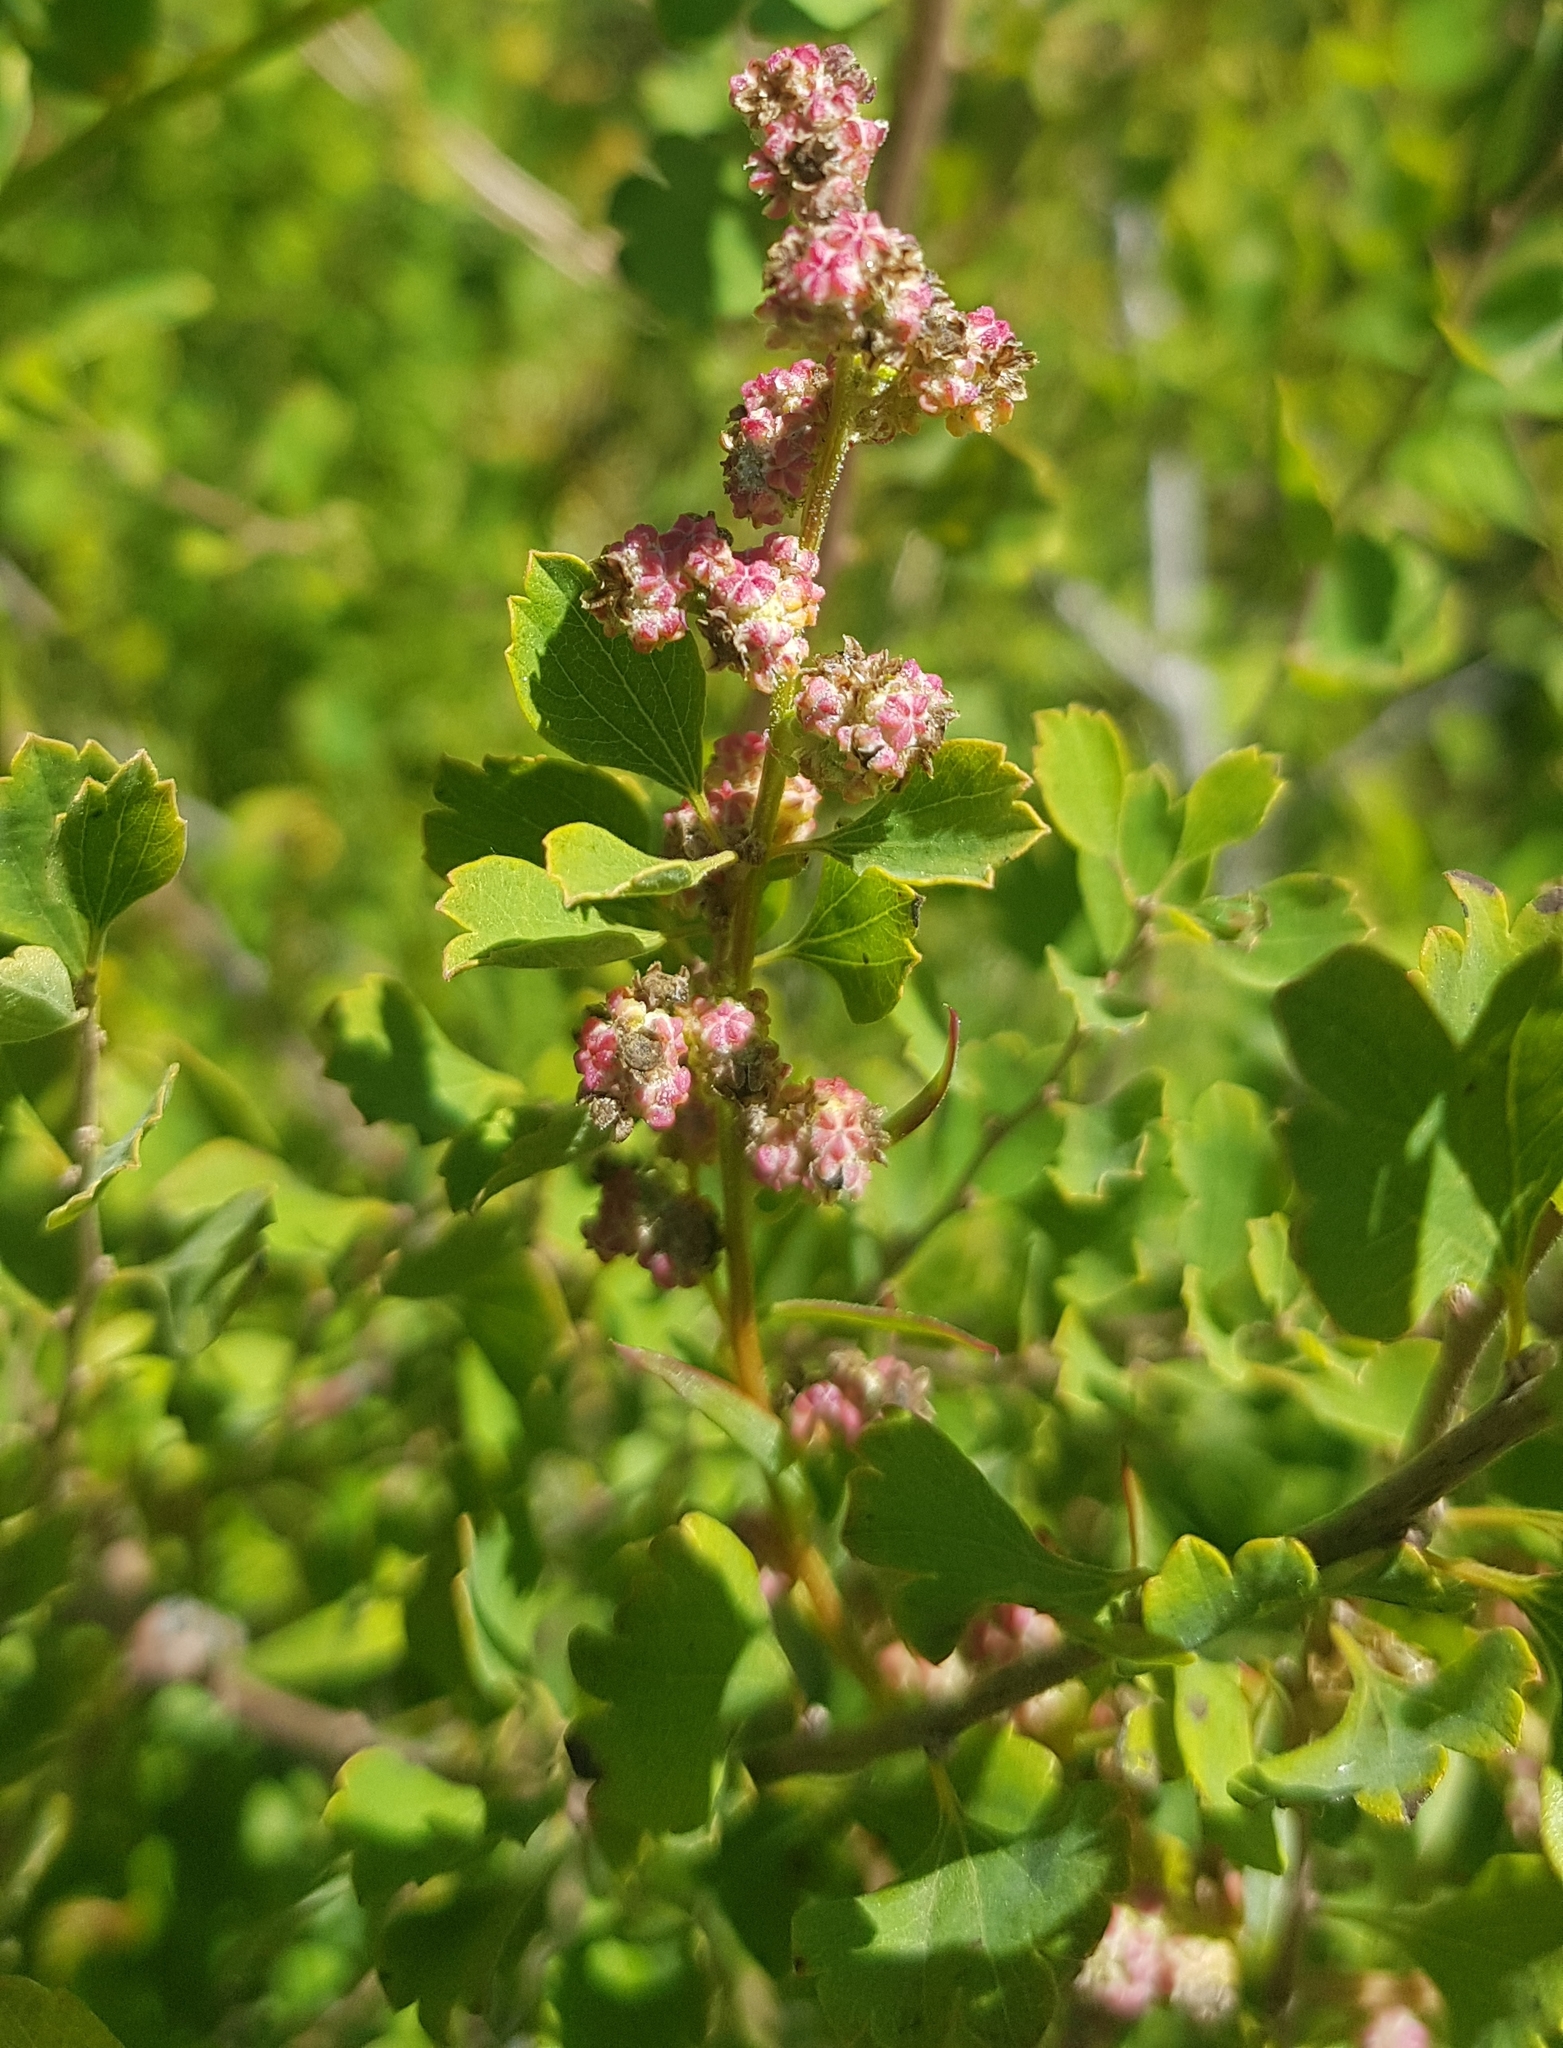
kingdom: Plantae
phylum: Tracheophyta
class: Magnoliopsida
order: Rosales
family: Rosaceae
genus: Spiraea
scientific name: Spiraea aquilegifolia
